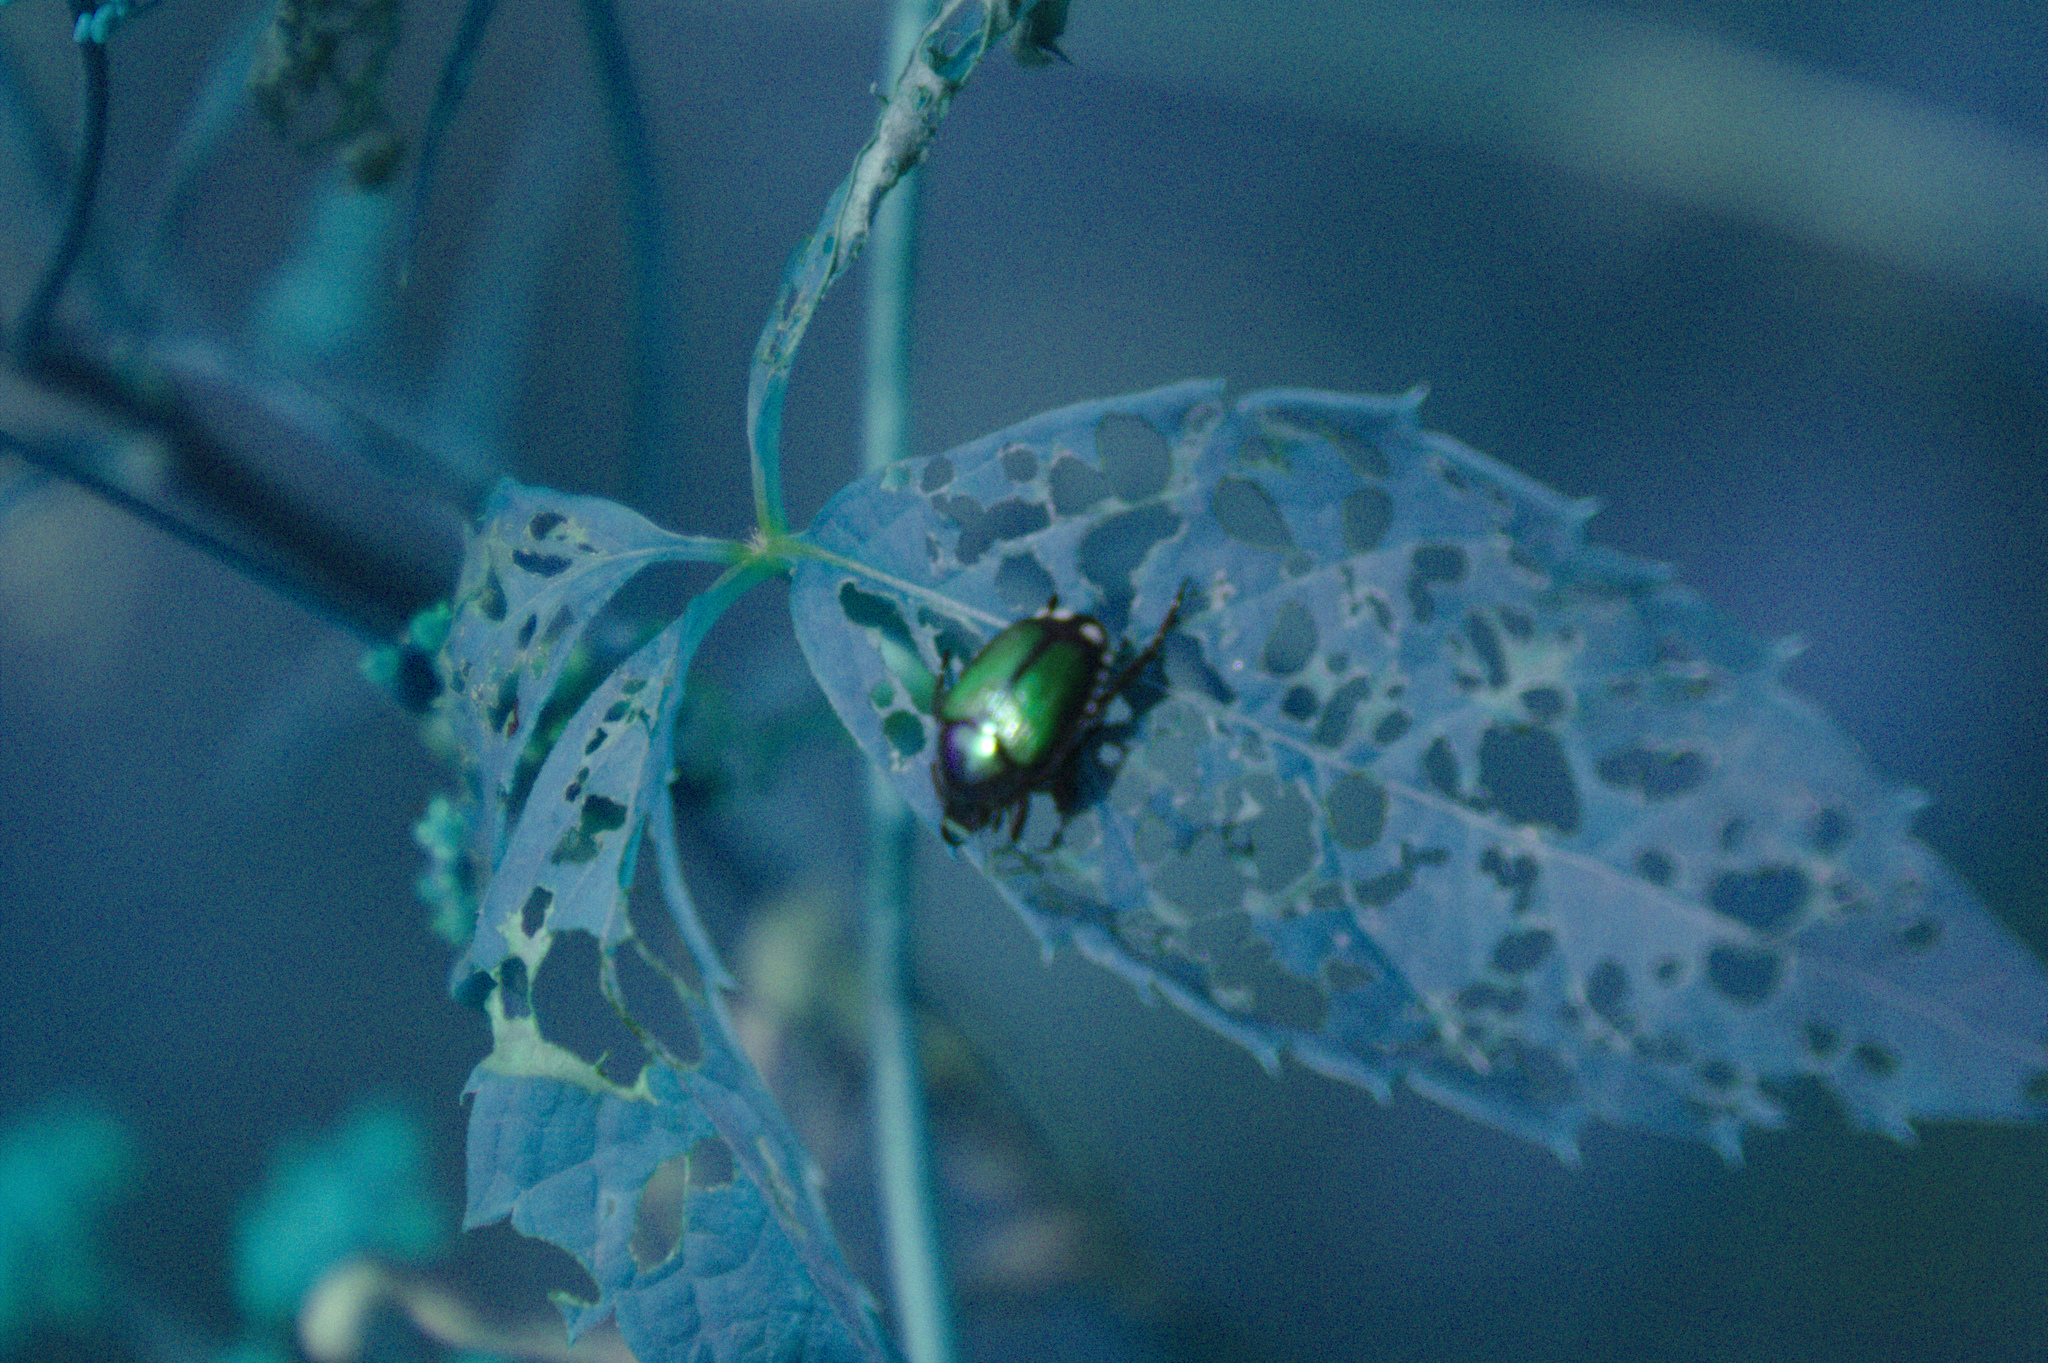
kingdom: Animalia
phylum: Arthropoda
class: Insecta
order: Coleoptera
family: Scarabaeidae
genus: Popillia
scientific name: Popillia japonica
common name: Japanese beetle
